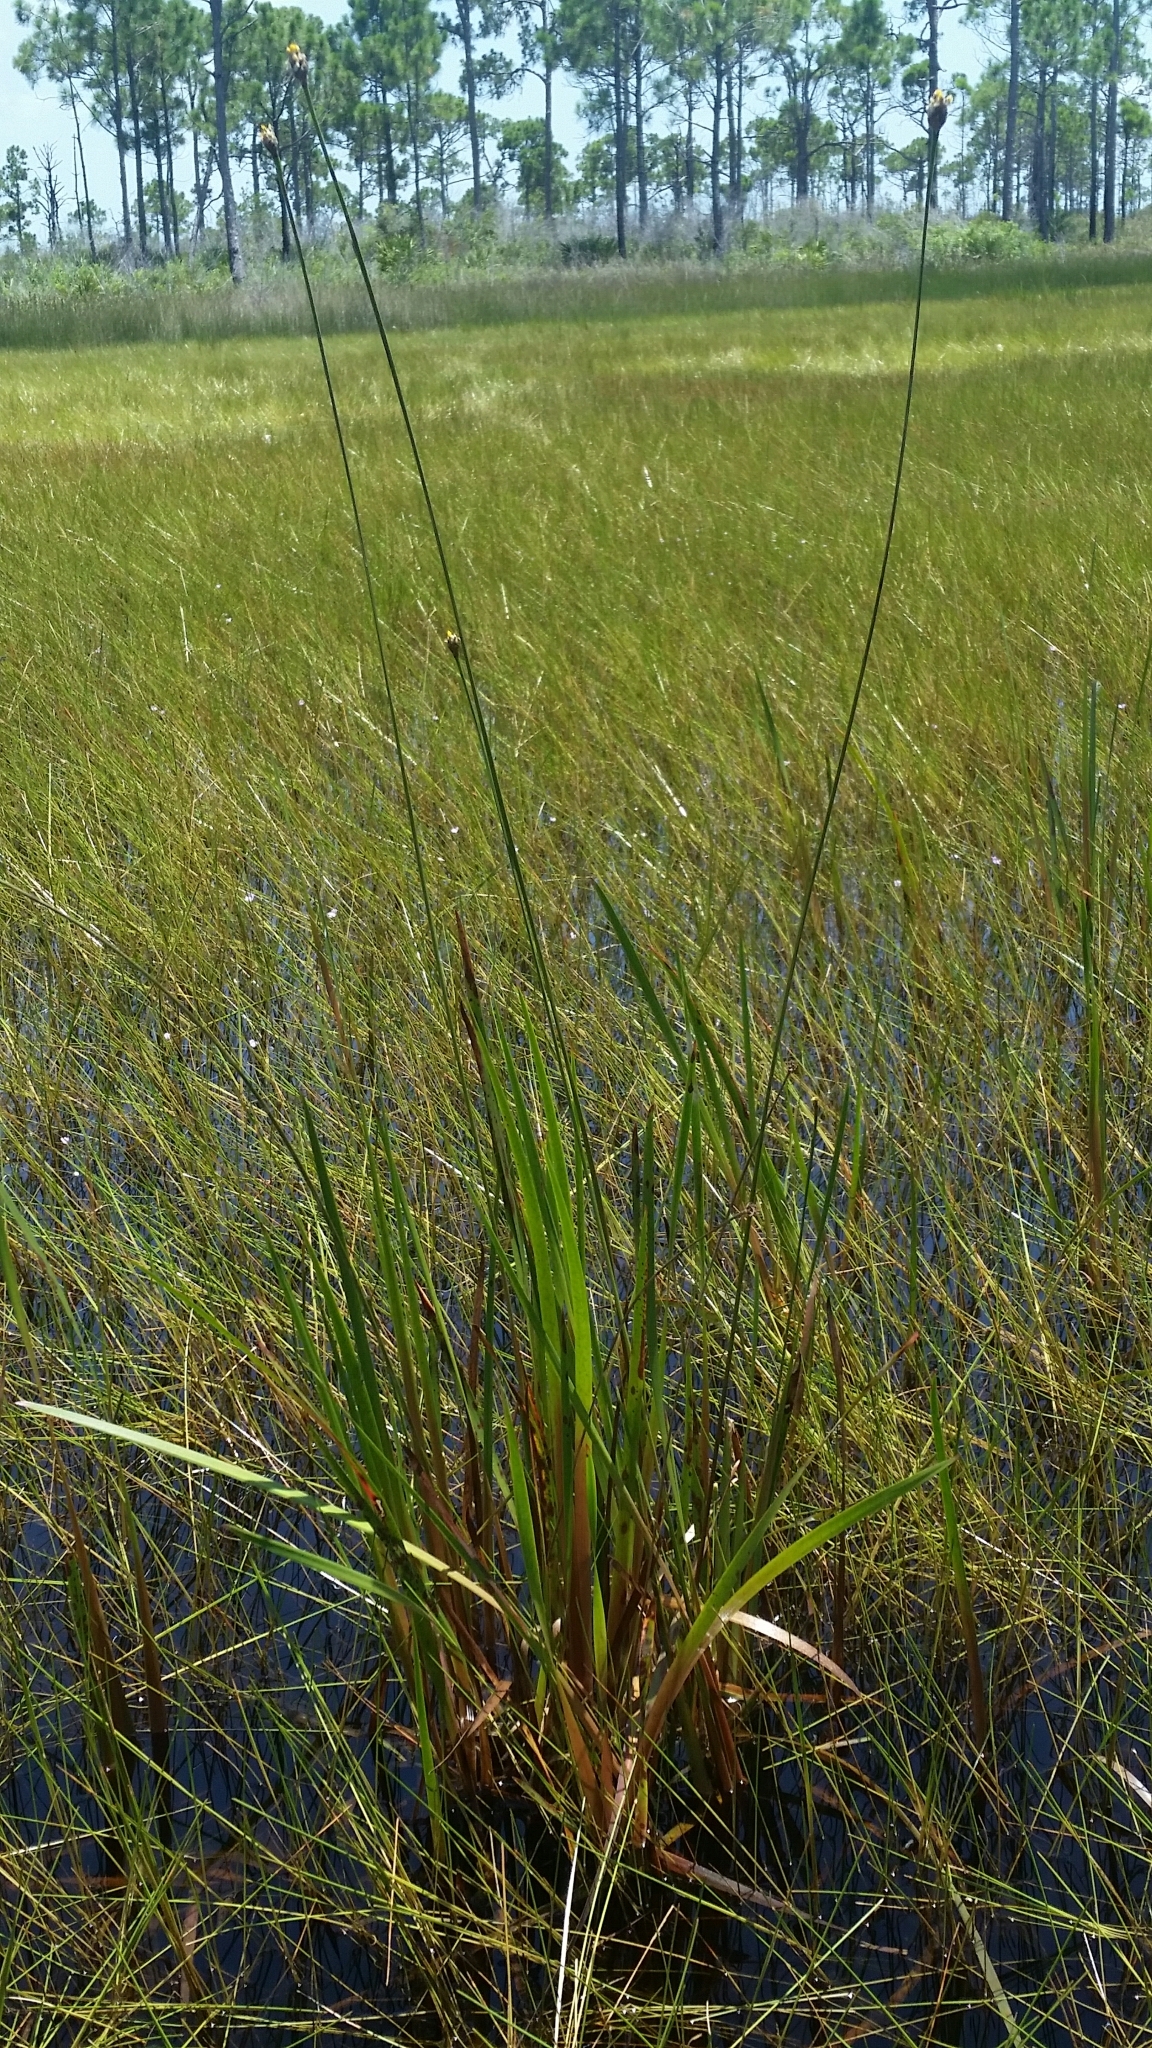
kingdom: Plantae
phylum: Tracheophyta
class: Liliopsida
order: Poales
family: Xyridaceae
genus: Xyris
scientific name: Xyris smalliana
